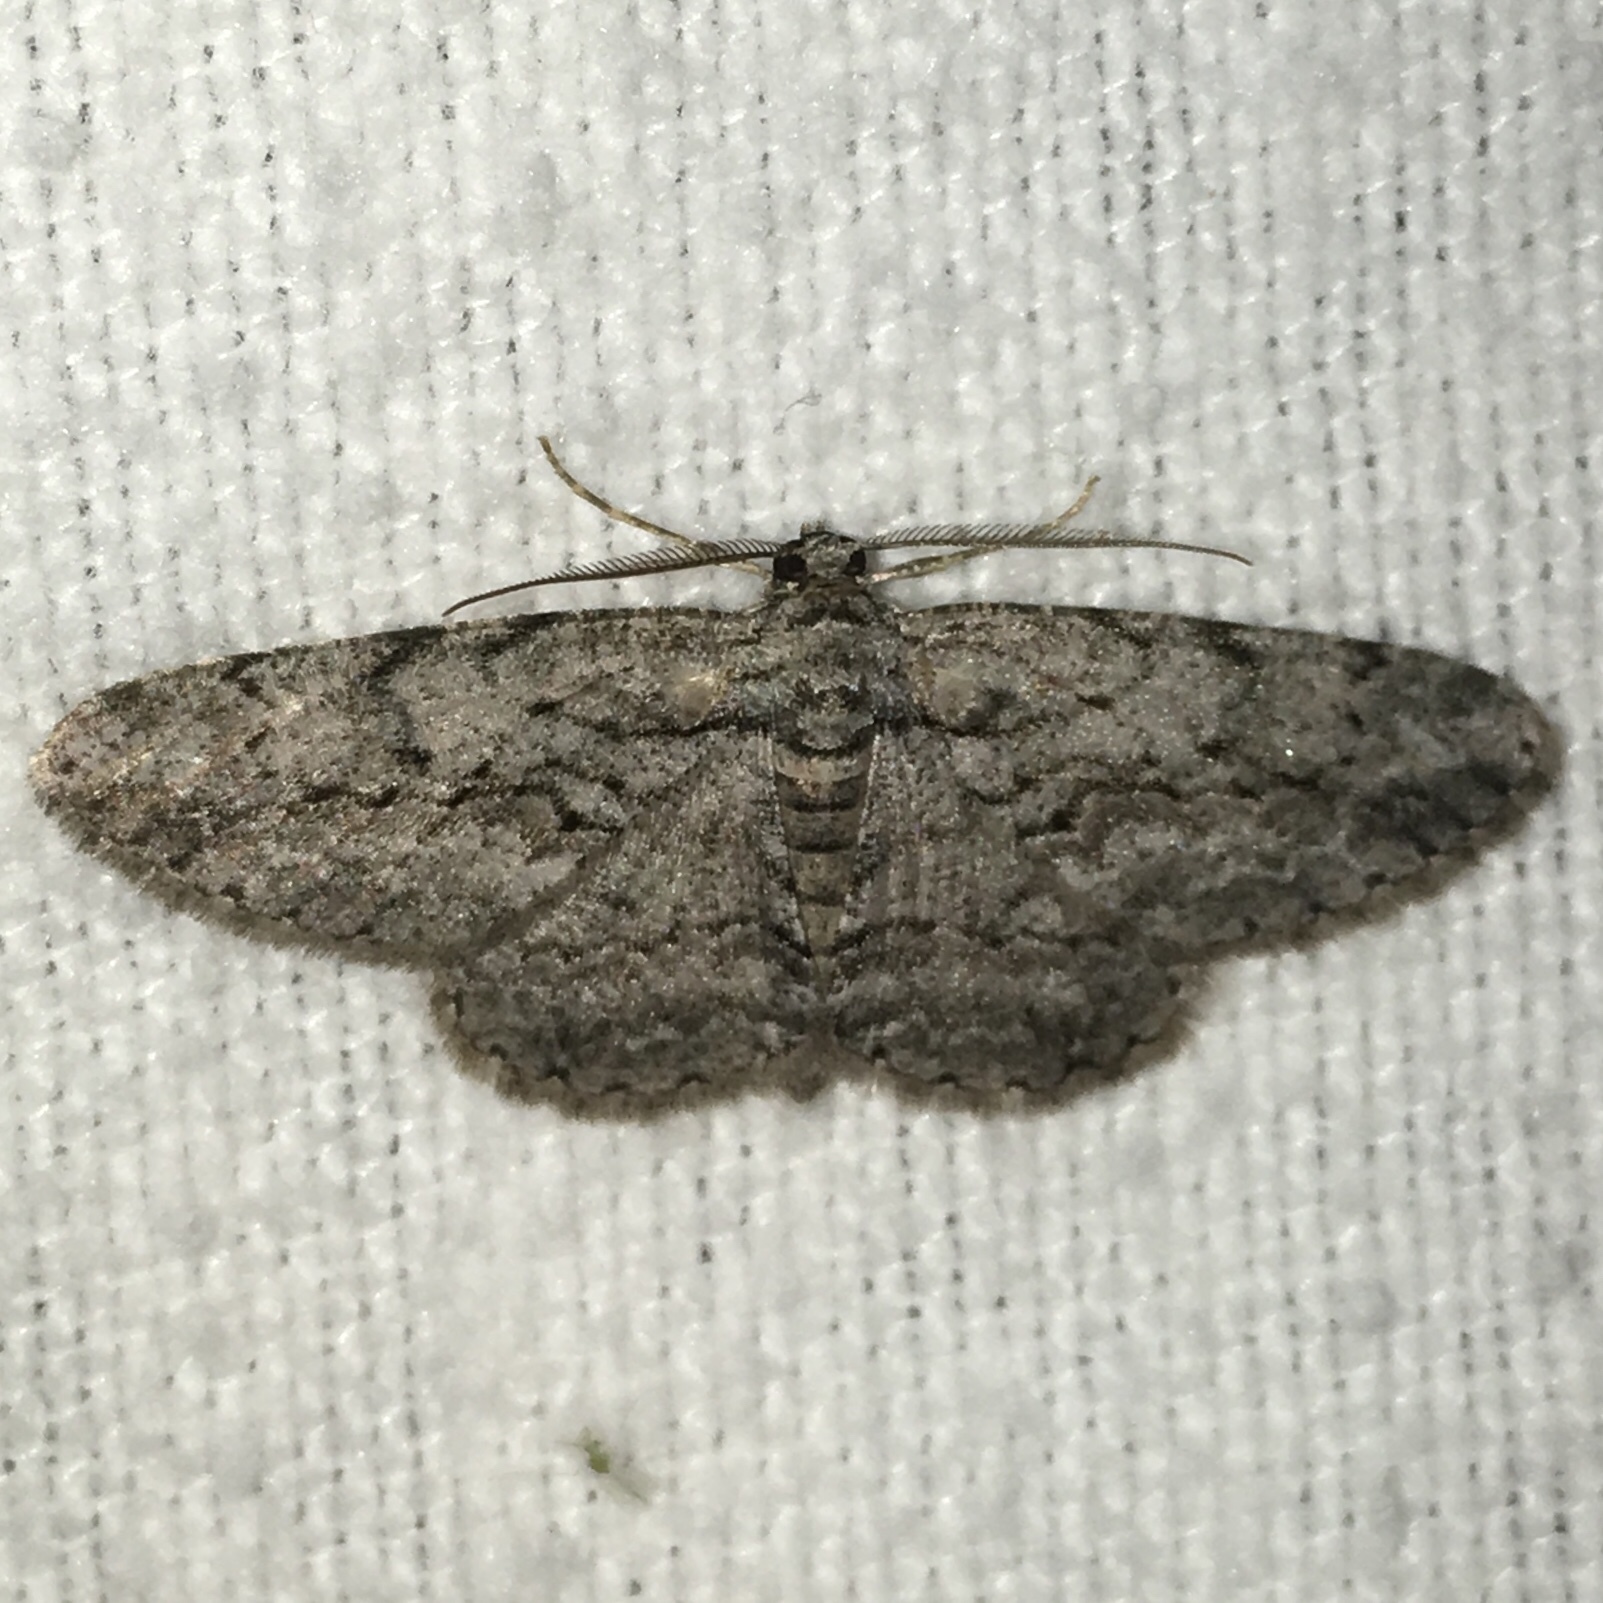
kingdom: Animalia
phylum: Arthropoda
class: Insecta
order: Lepidoptera
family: Geometridae
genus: Anavitrinella
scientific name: Anavitrinella pampinaria
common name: Common gray
